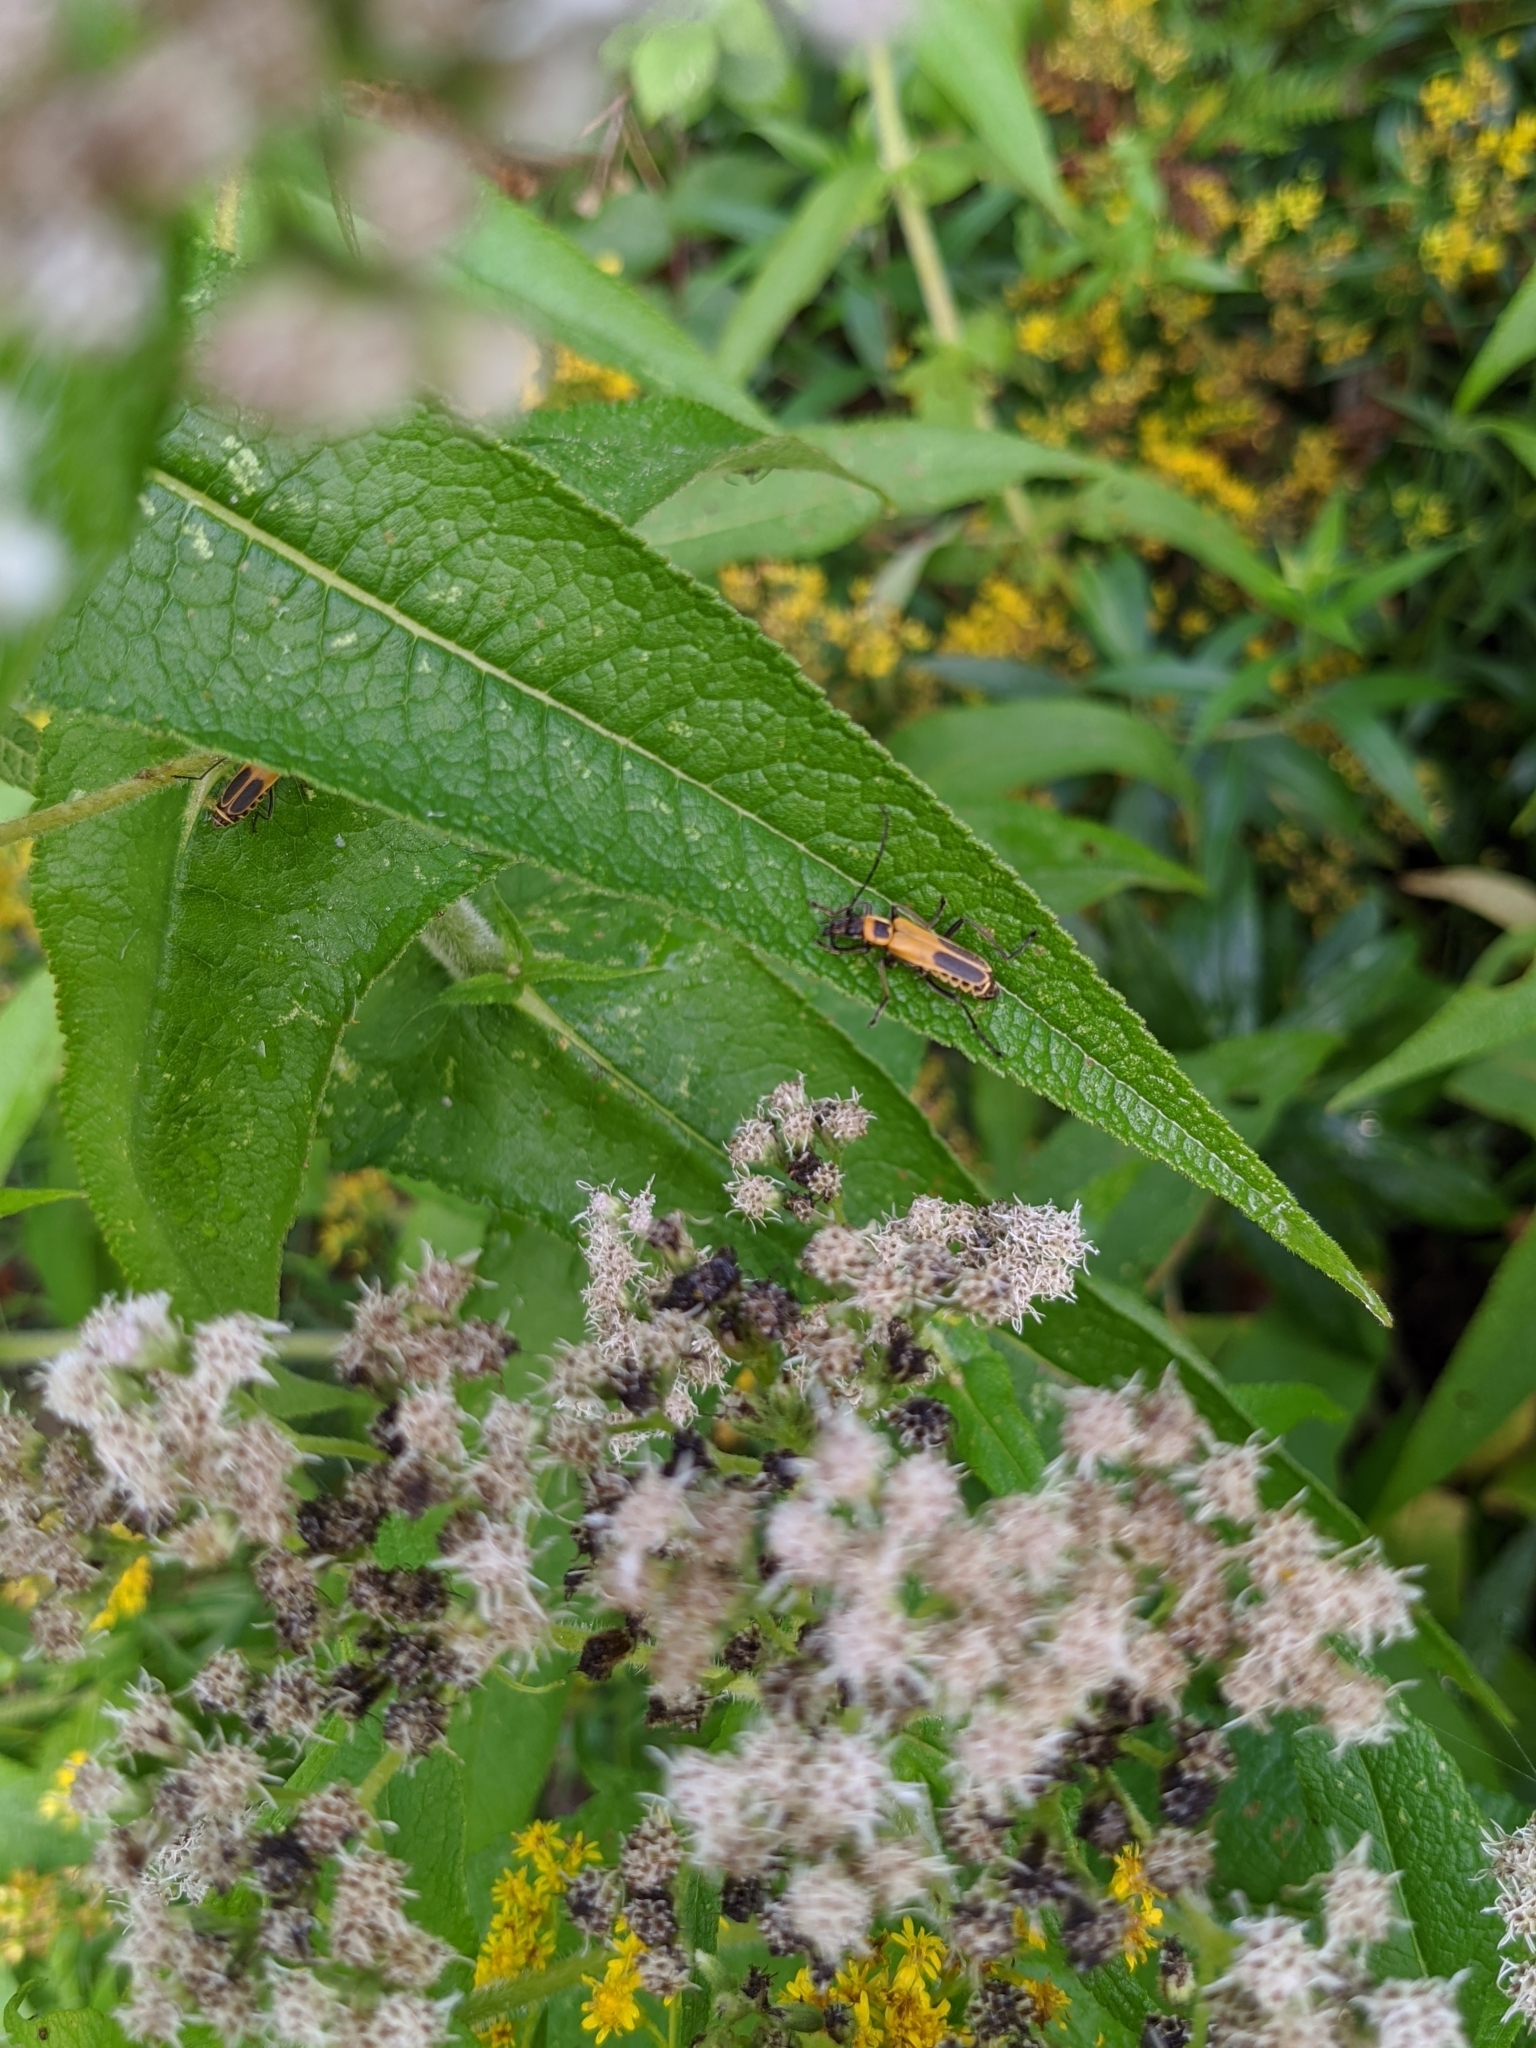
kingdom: Animalia
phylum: Arthropoda
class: Insecta
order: Coleoptera
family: Cantharidae
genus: Chauliognathus
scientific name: Chauliognathus pensylvanicus
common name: Goldenrod soldier beetle
